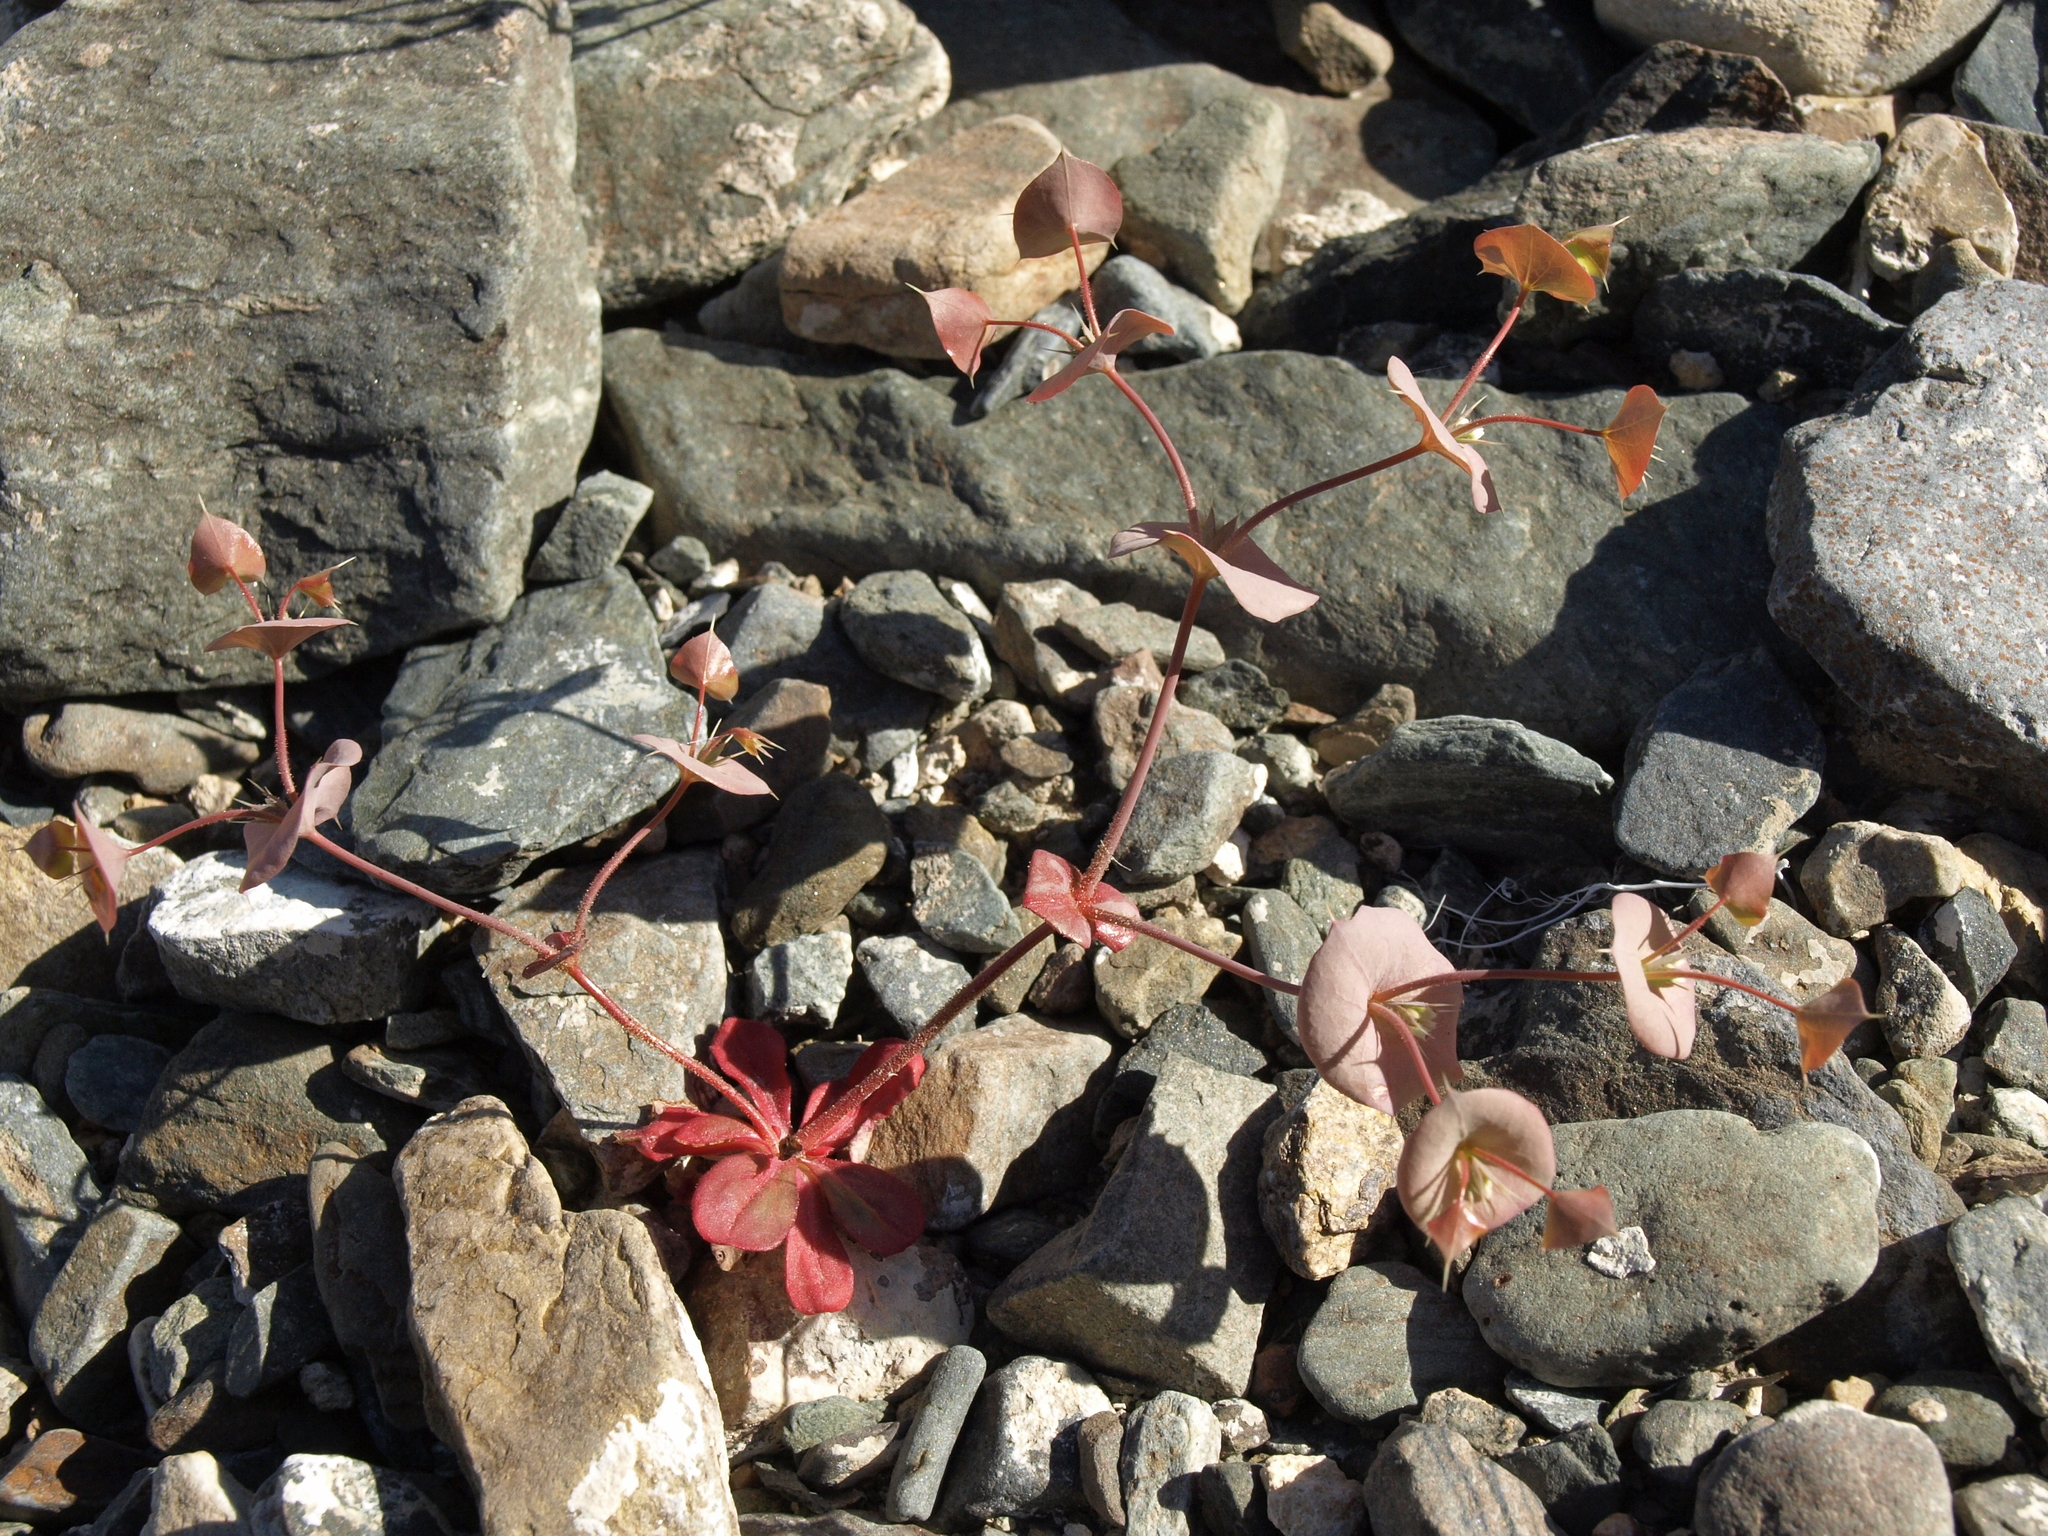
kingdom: Plantae
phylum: Tracheophyta
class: Magnoliopsida
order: Caryophyllales
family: Polygonaceae
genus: Oxytheca
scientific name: Oxytheca perfoliata
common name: Round-leaf puncturebract
